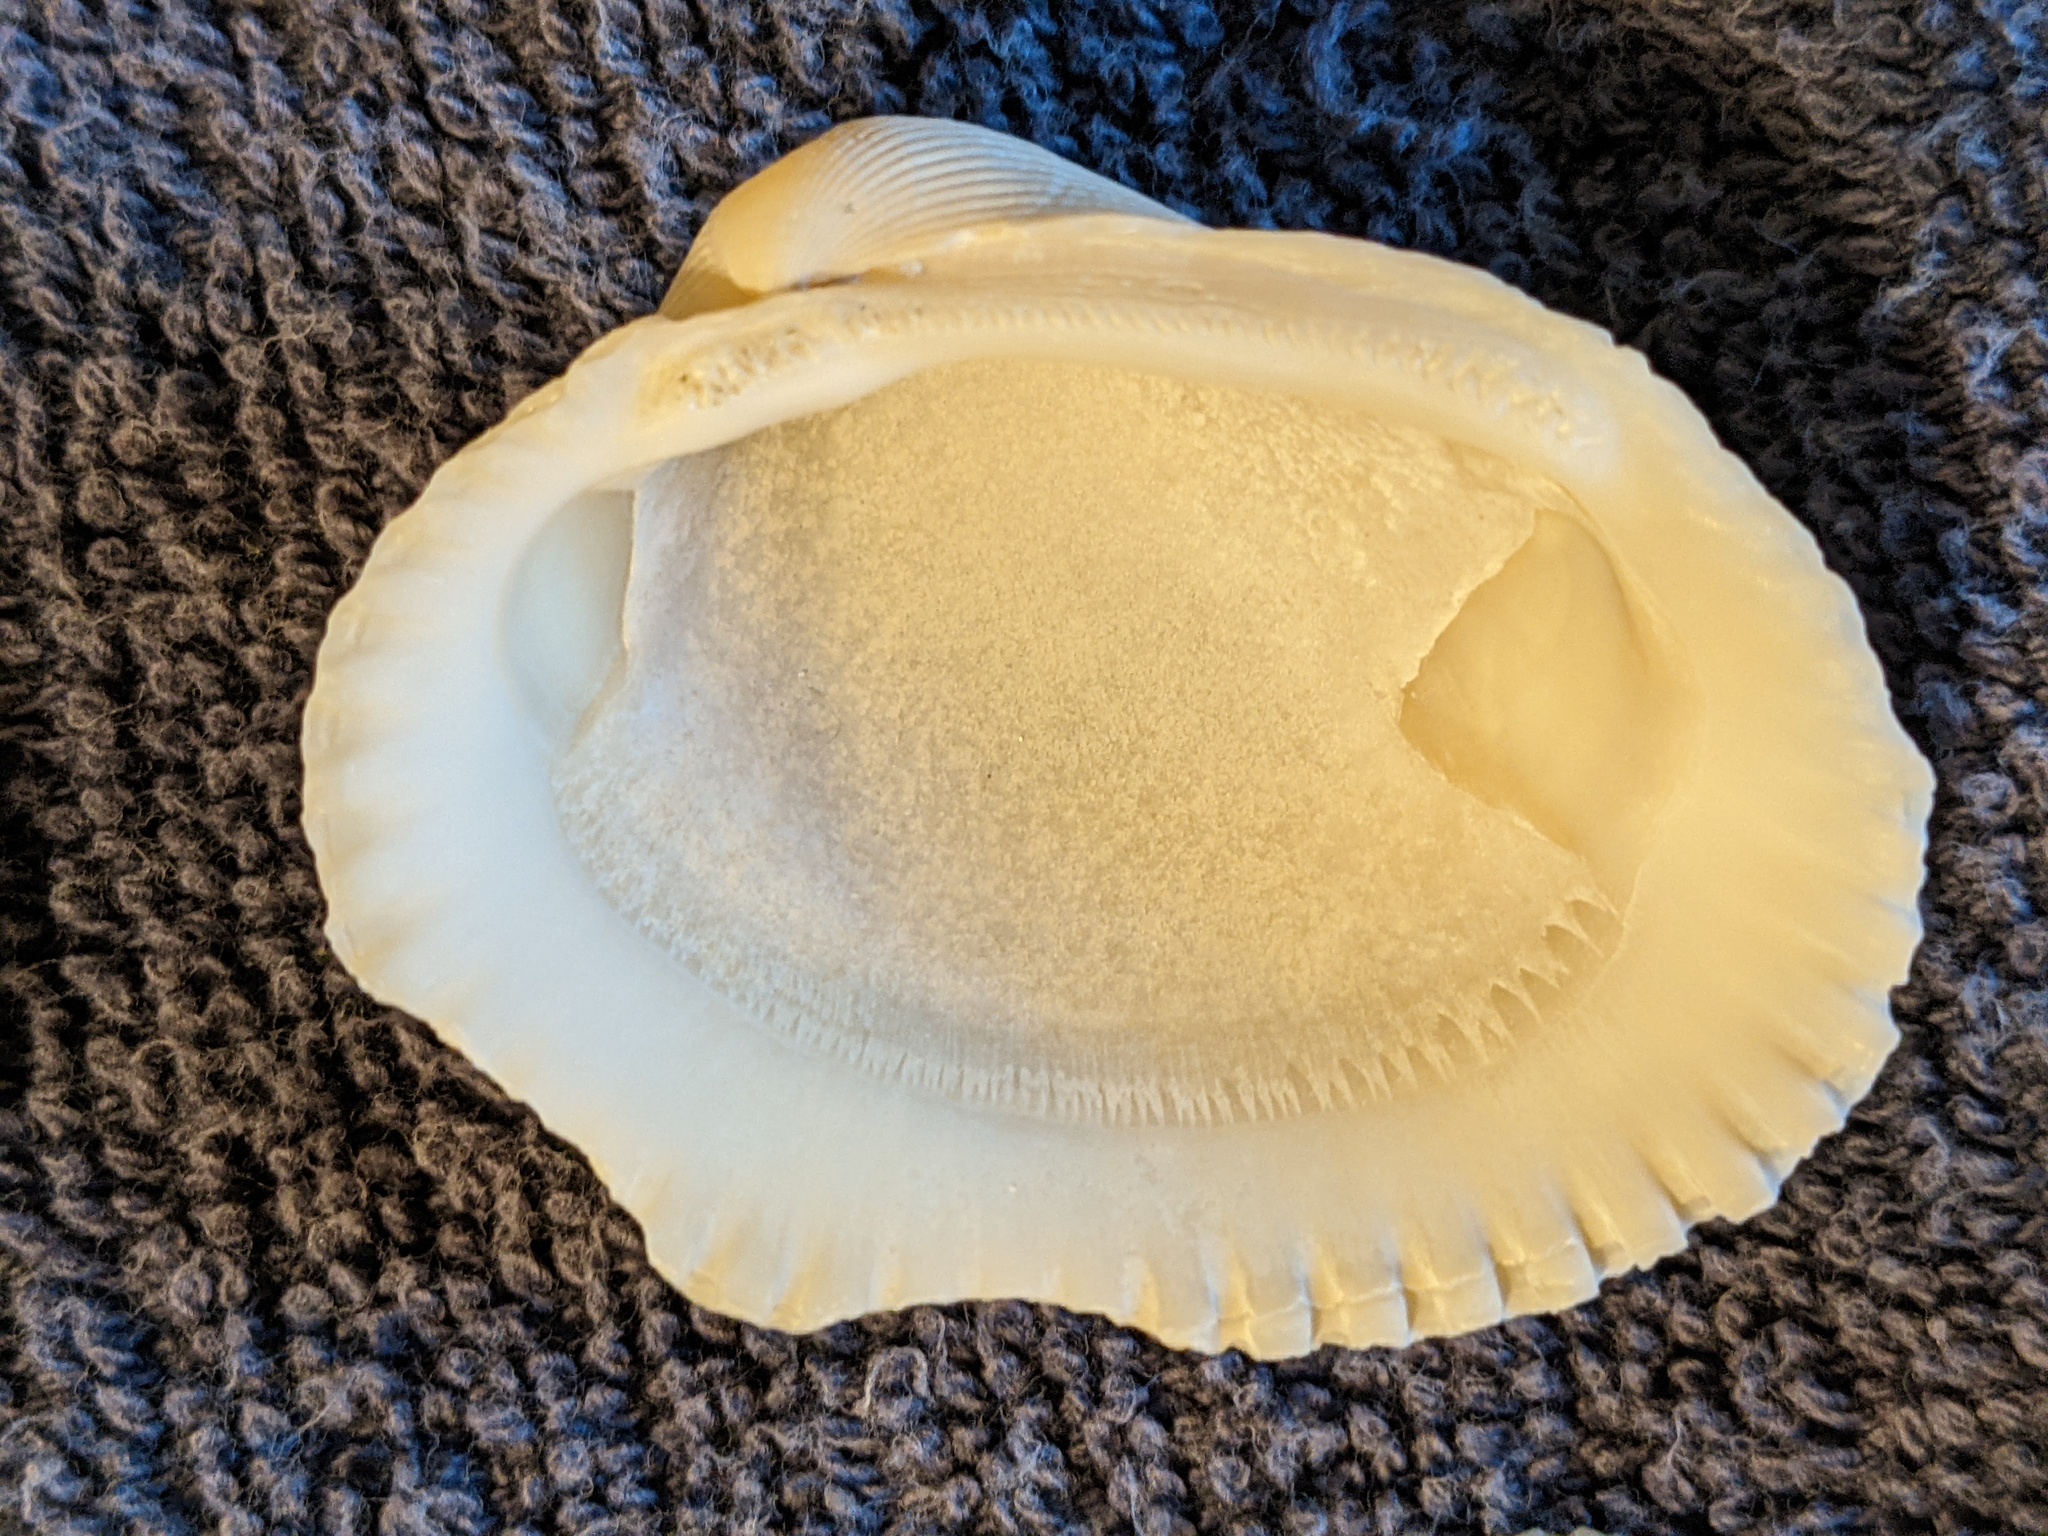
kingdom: Animalia
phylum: Mollusca
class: Bivalvia
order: Arcida
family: Arcidae
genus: Lunarca
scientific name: Lunarca ovalis
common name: Blood ark
